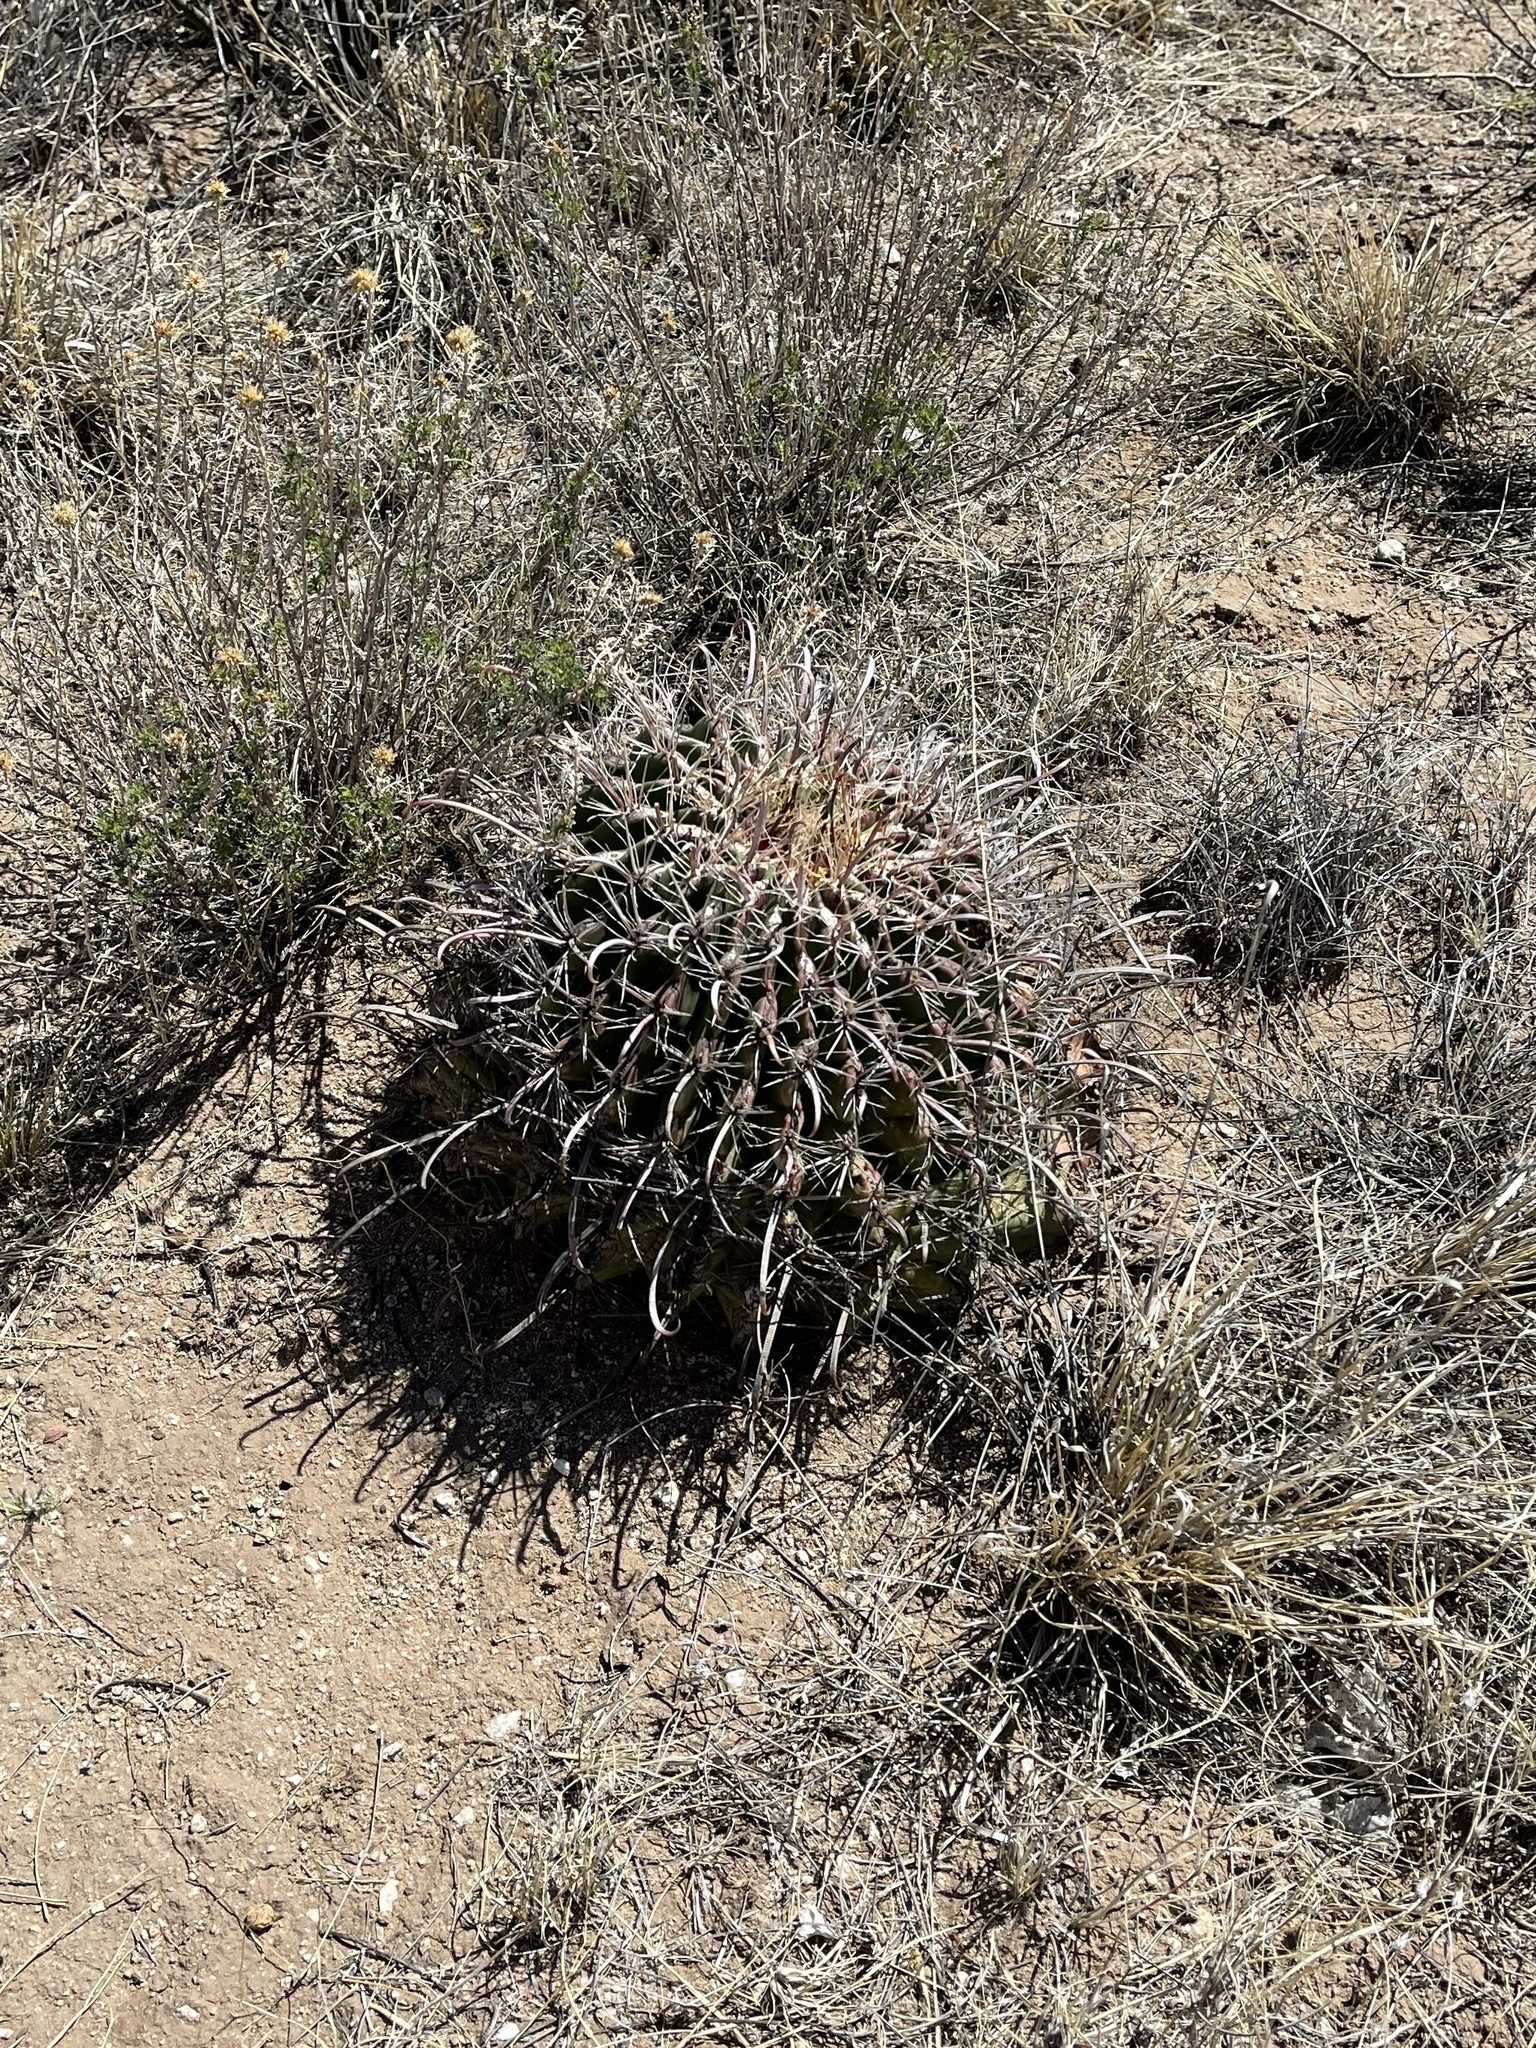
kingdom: Plantae
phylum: Tracheophyta
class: Magnoliopsida
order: Caryophyllales
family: Cactaceae
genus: Ferocactus
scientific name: Ferocactus wislizeni
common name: Candy barrel cactus
